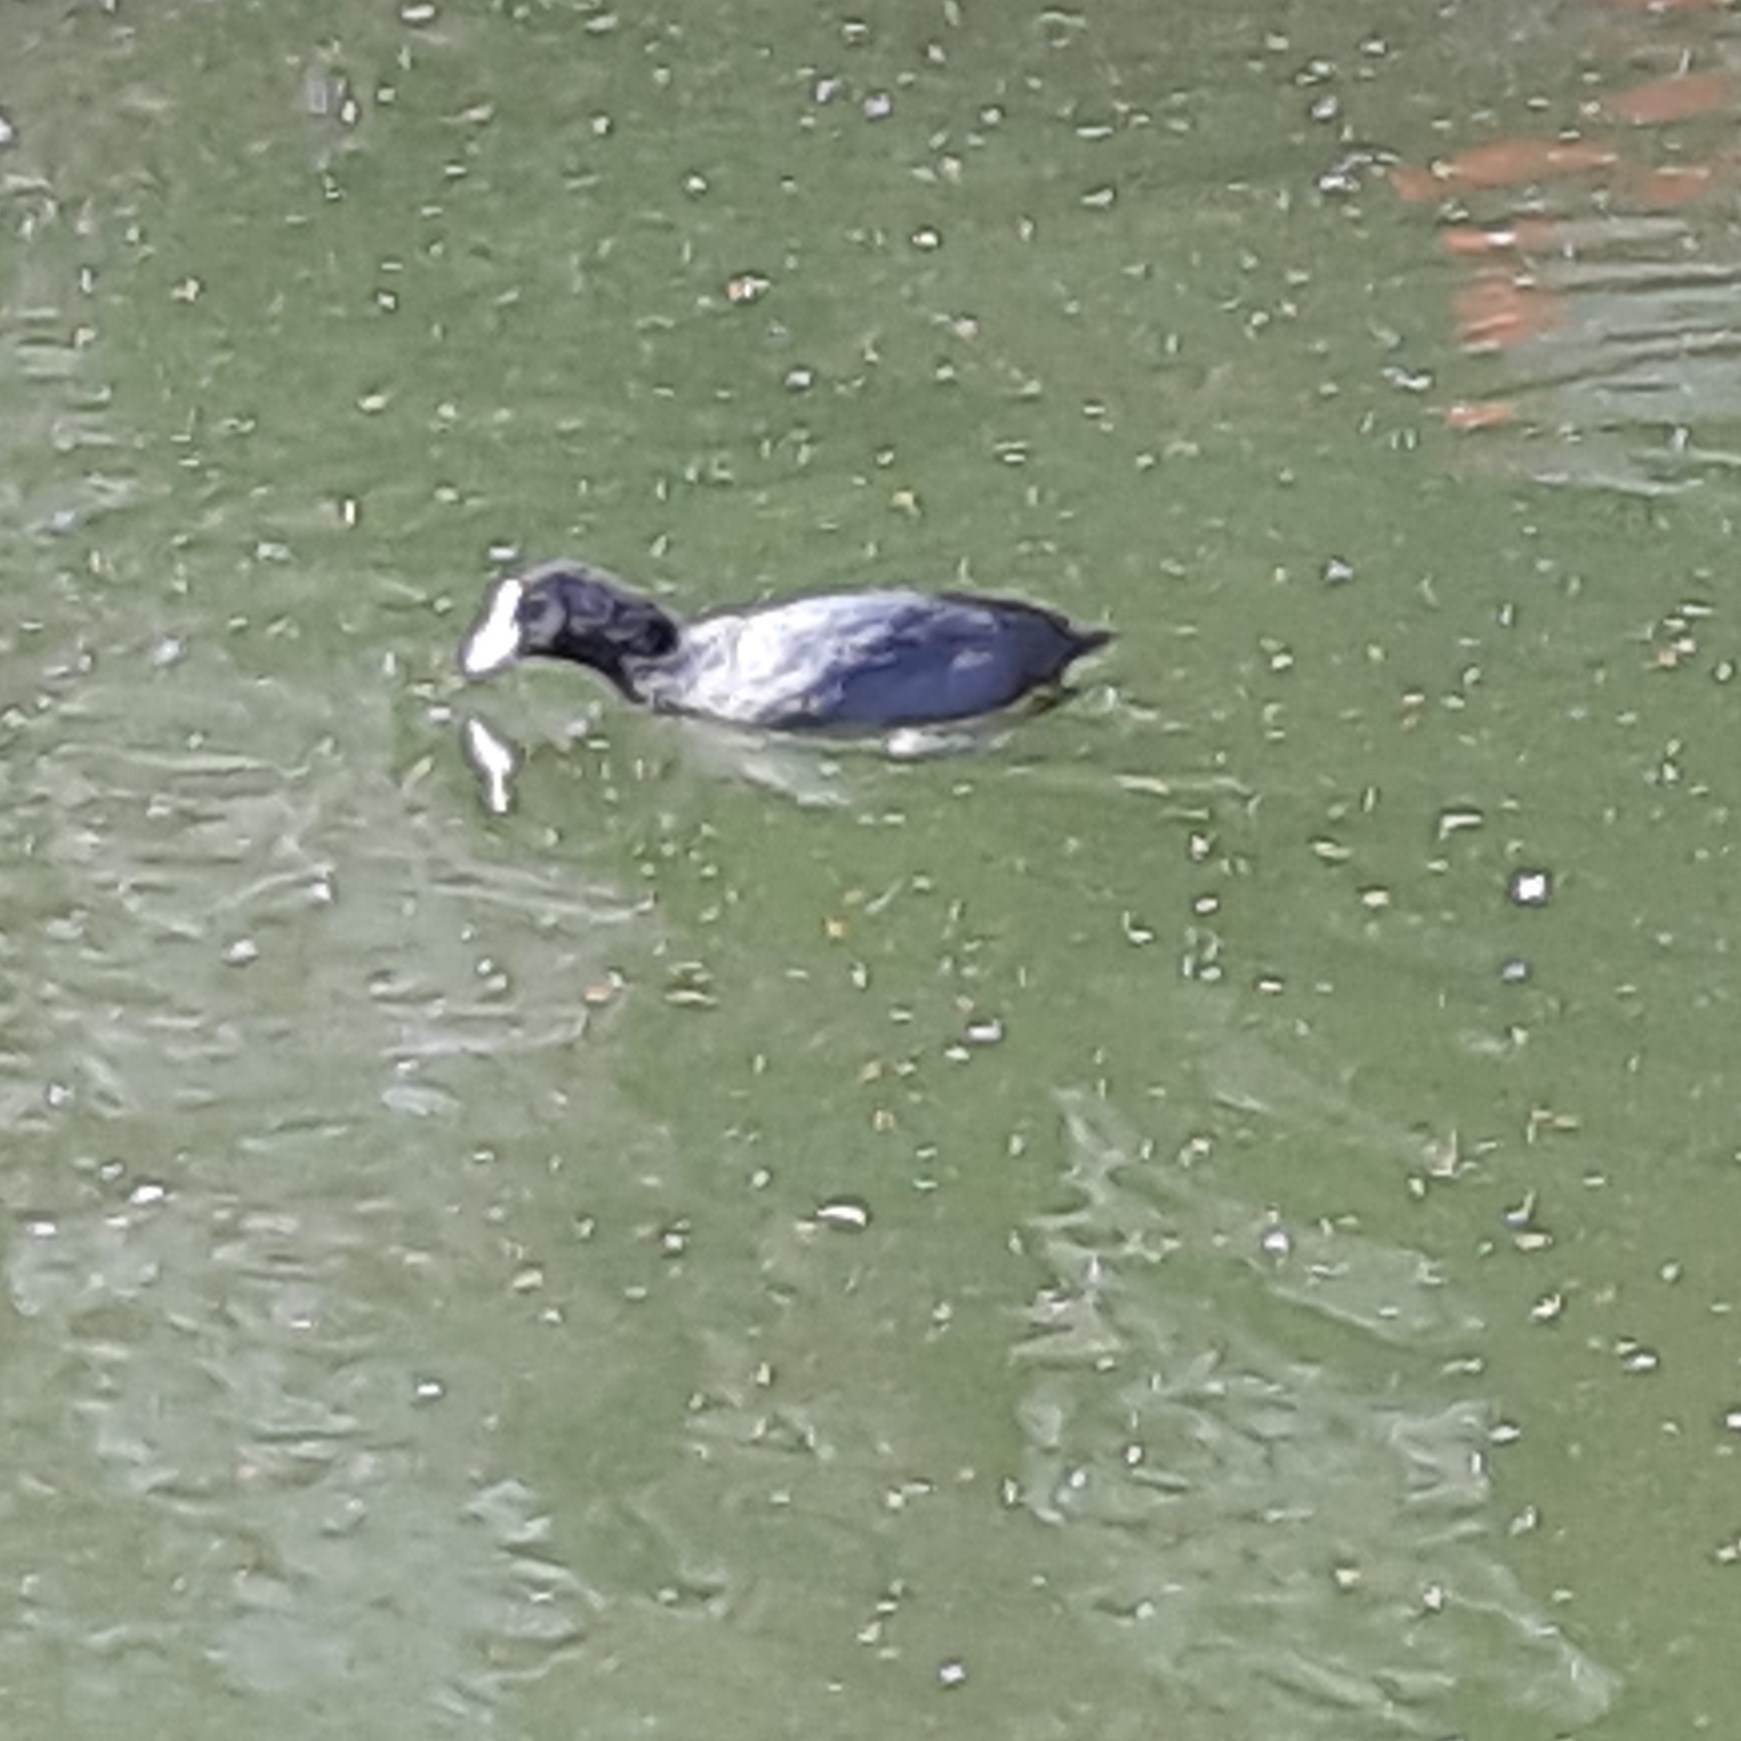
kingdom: Animalia
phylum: Chordata
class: Aves
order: Gruiformes
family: Rallidae
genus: Fulica
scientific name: Fulica atra
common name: Eurasian coot
